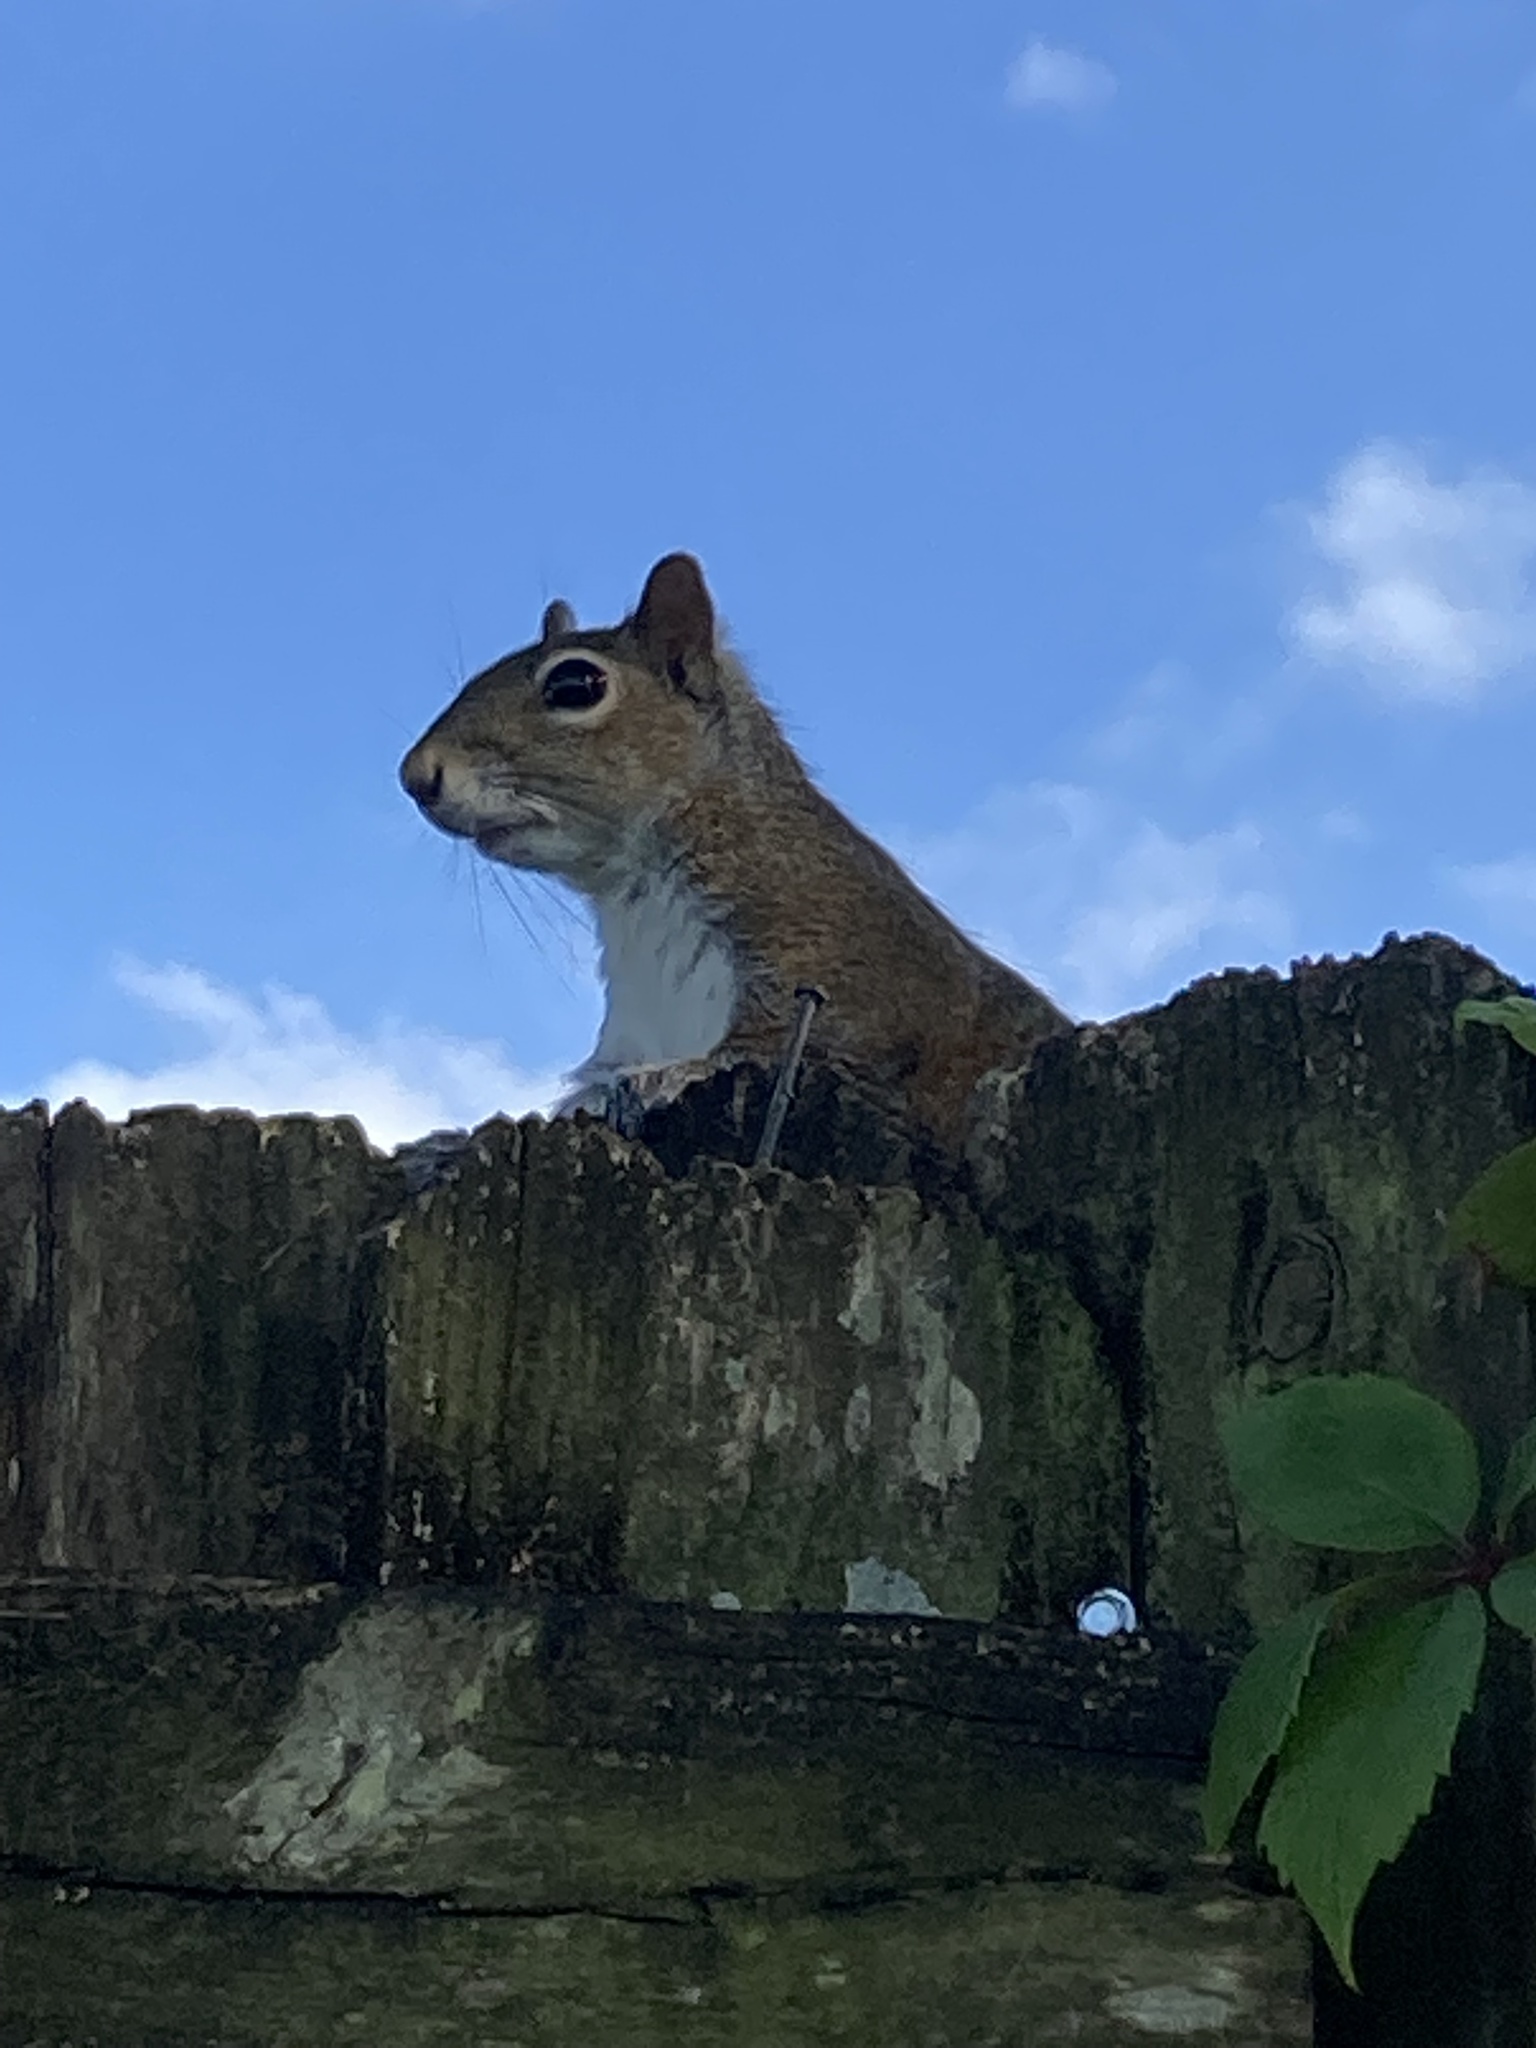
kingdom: Animalia
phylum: Chordata
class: Mammalia
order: Rodentia
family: Sciuridae
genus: Sciurus
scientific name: Sciurus carolinensis
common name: Eastern gray squirrel
